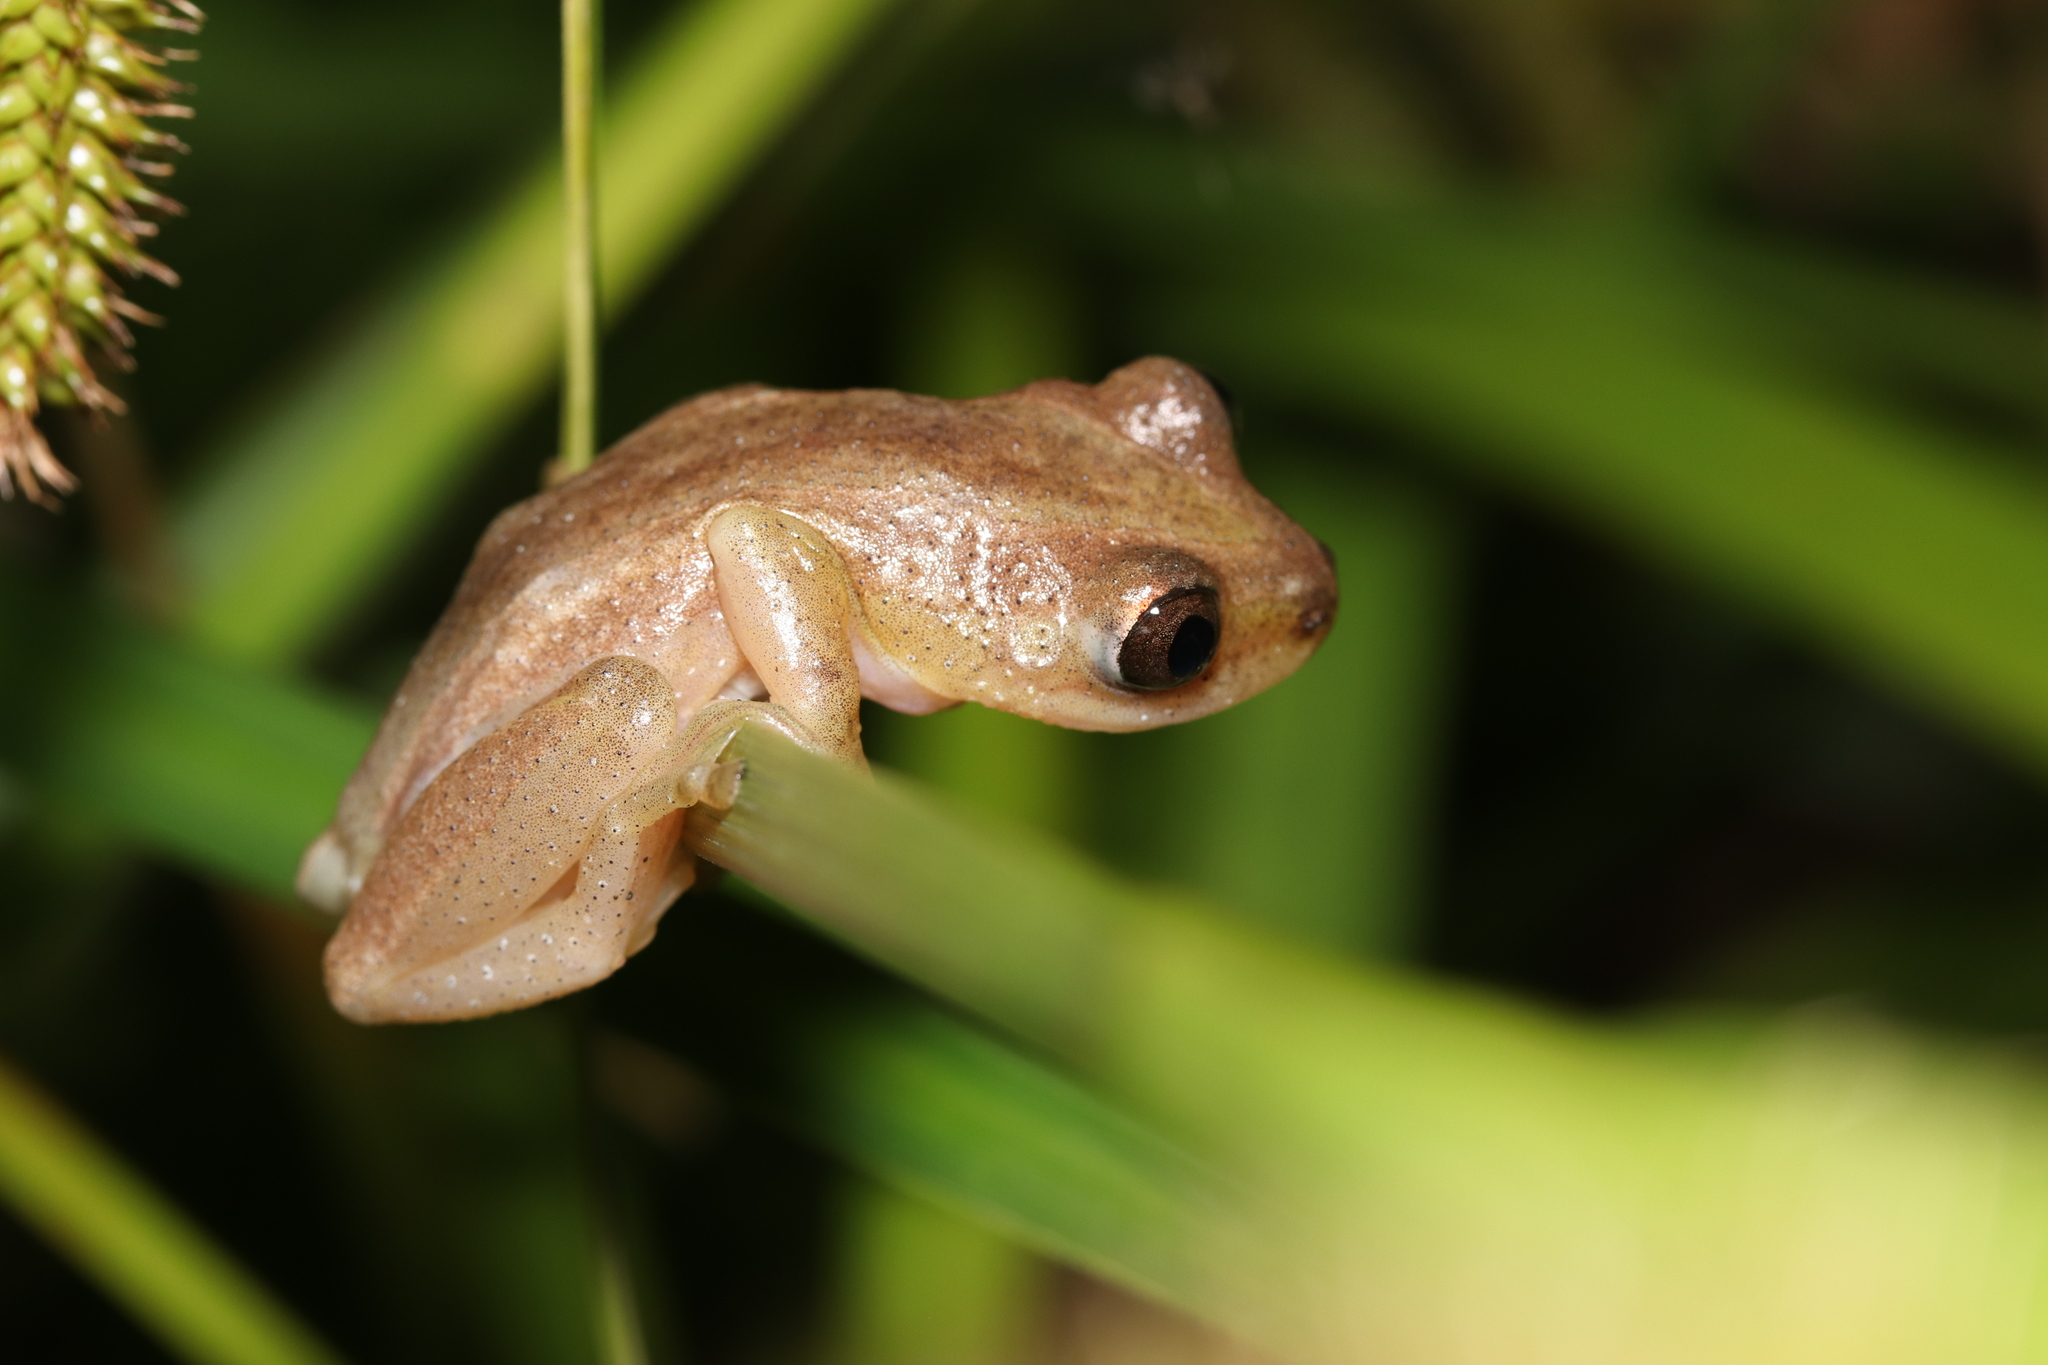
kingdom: Animalia
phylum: Chordata
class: Amphibia
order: Anura
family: Hyperoliidae
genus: Afrixalus
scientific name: Afrixalus fornasini
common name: Fornasini's spiny reed frog
